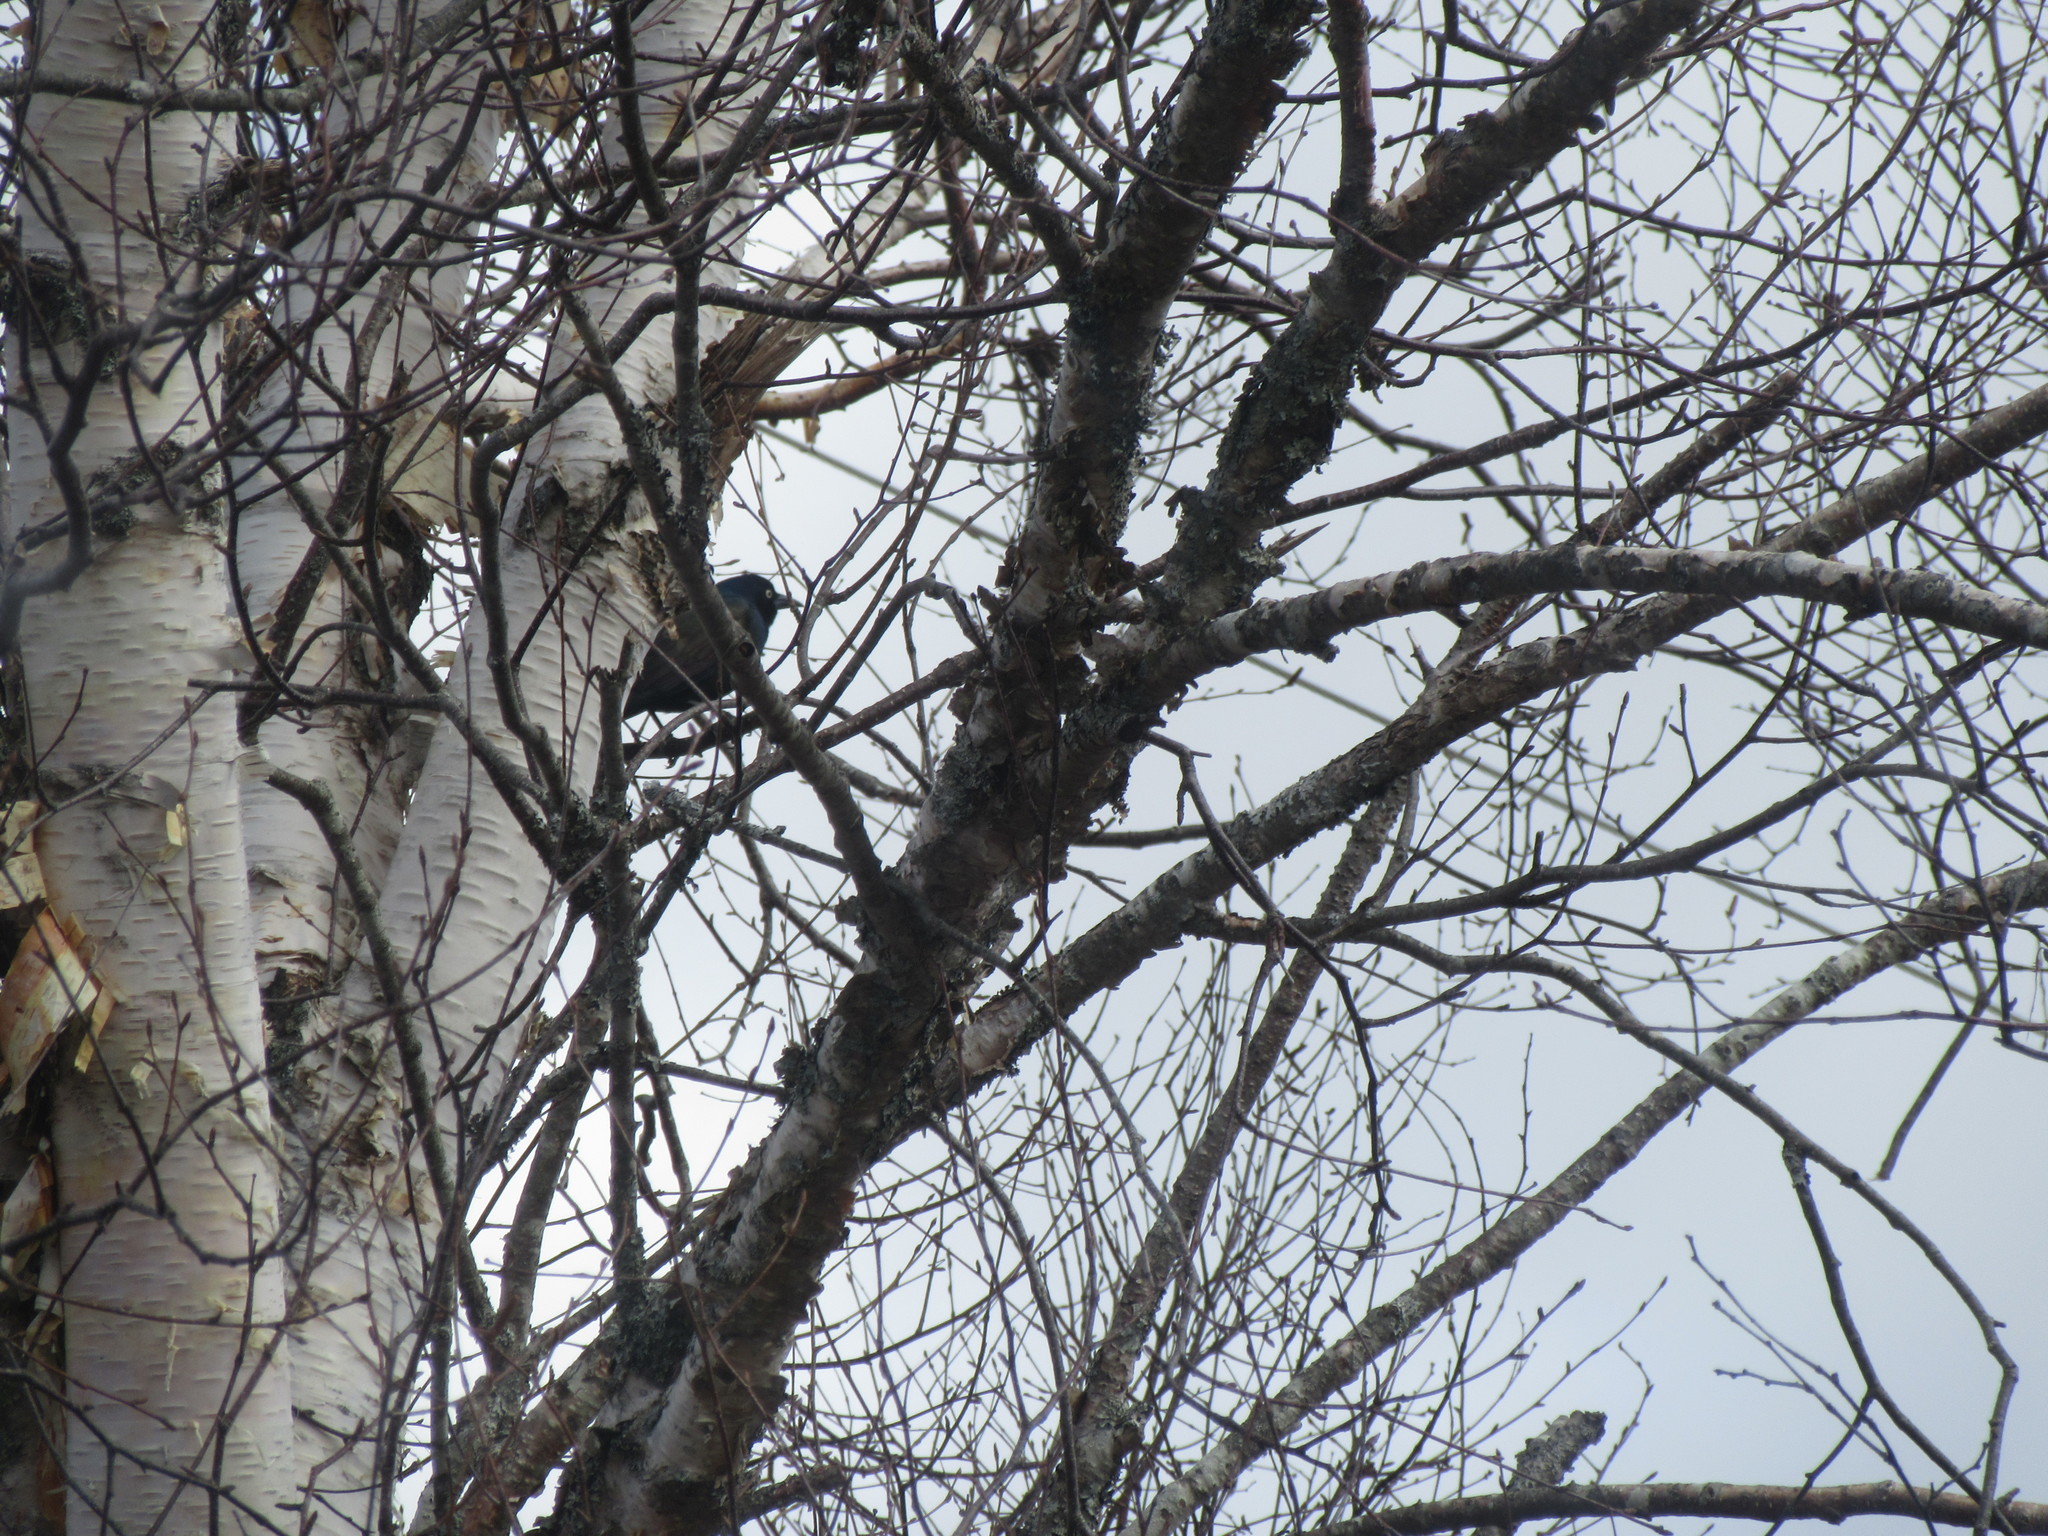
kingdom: Animalia
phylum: Chordata
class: Aves
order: Passeriformes
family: Icteridae
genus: Quiscalus
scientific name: Quiscalus quiscula
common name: Common grackle
